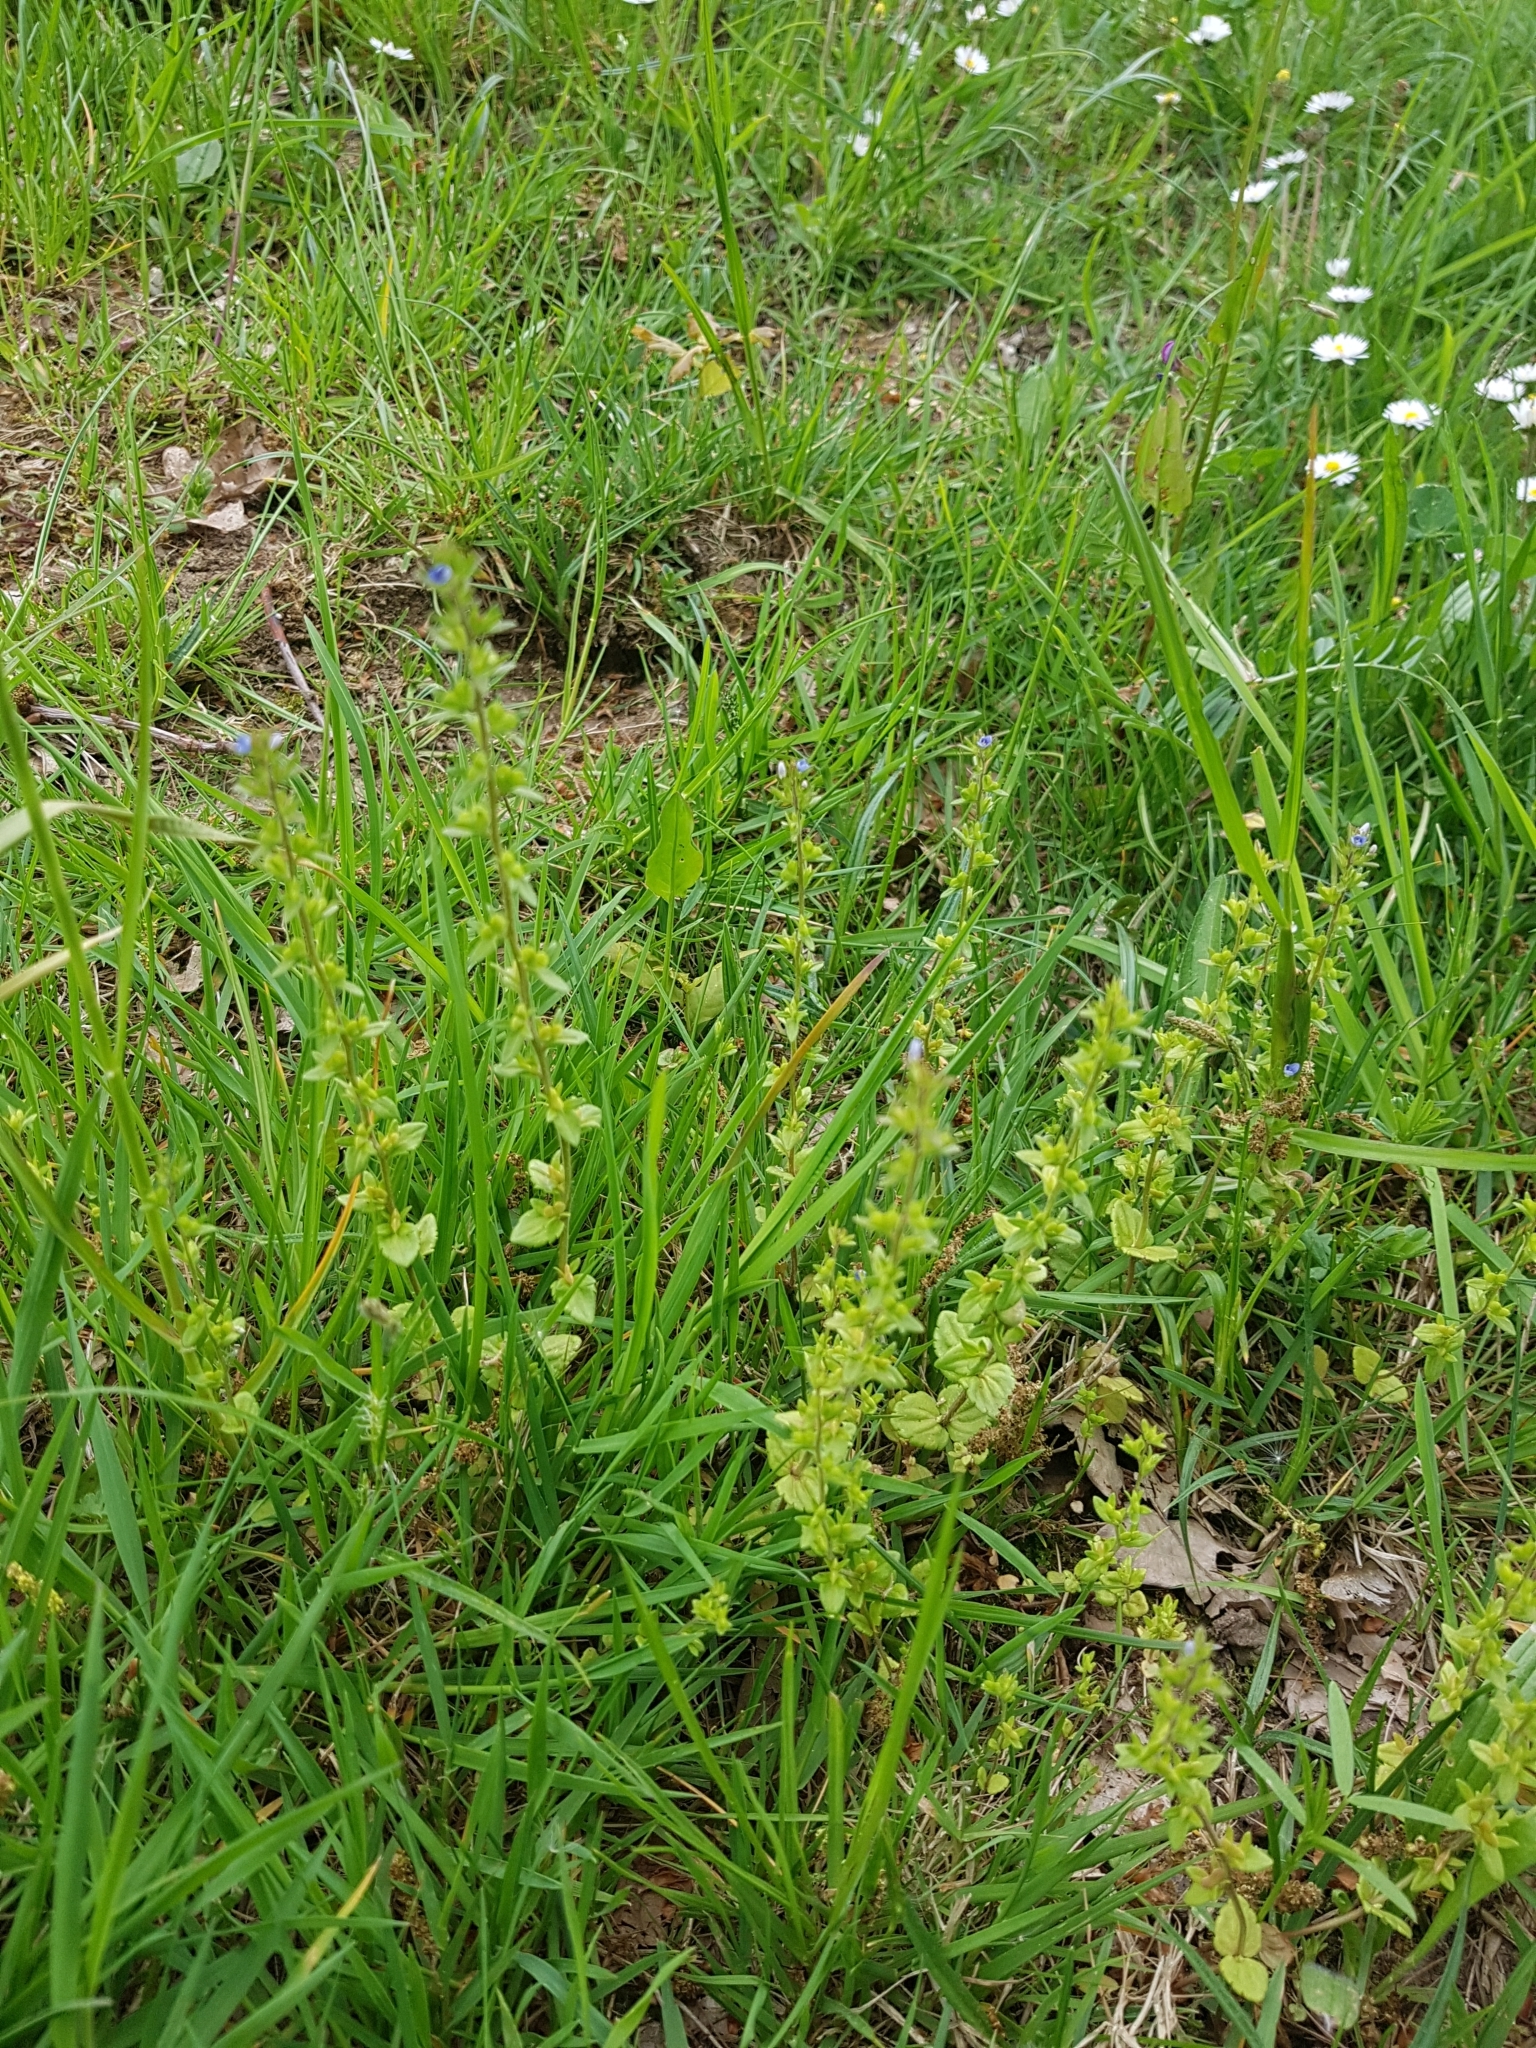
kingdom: Plantae
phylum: Tracheophyta
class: Magnoliopsida
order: Lamiales
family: Plantaginaceae
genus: Veronica
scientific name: Veronica arvensis
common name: Corn speedwell
